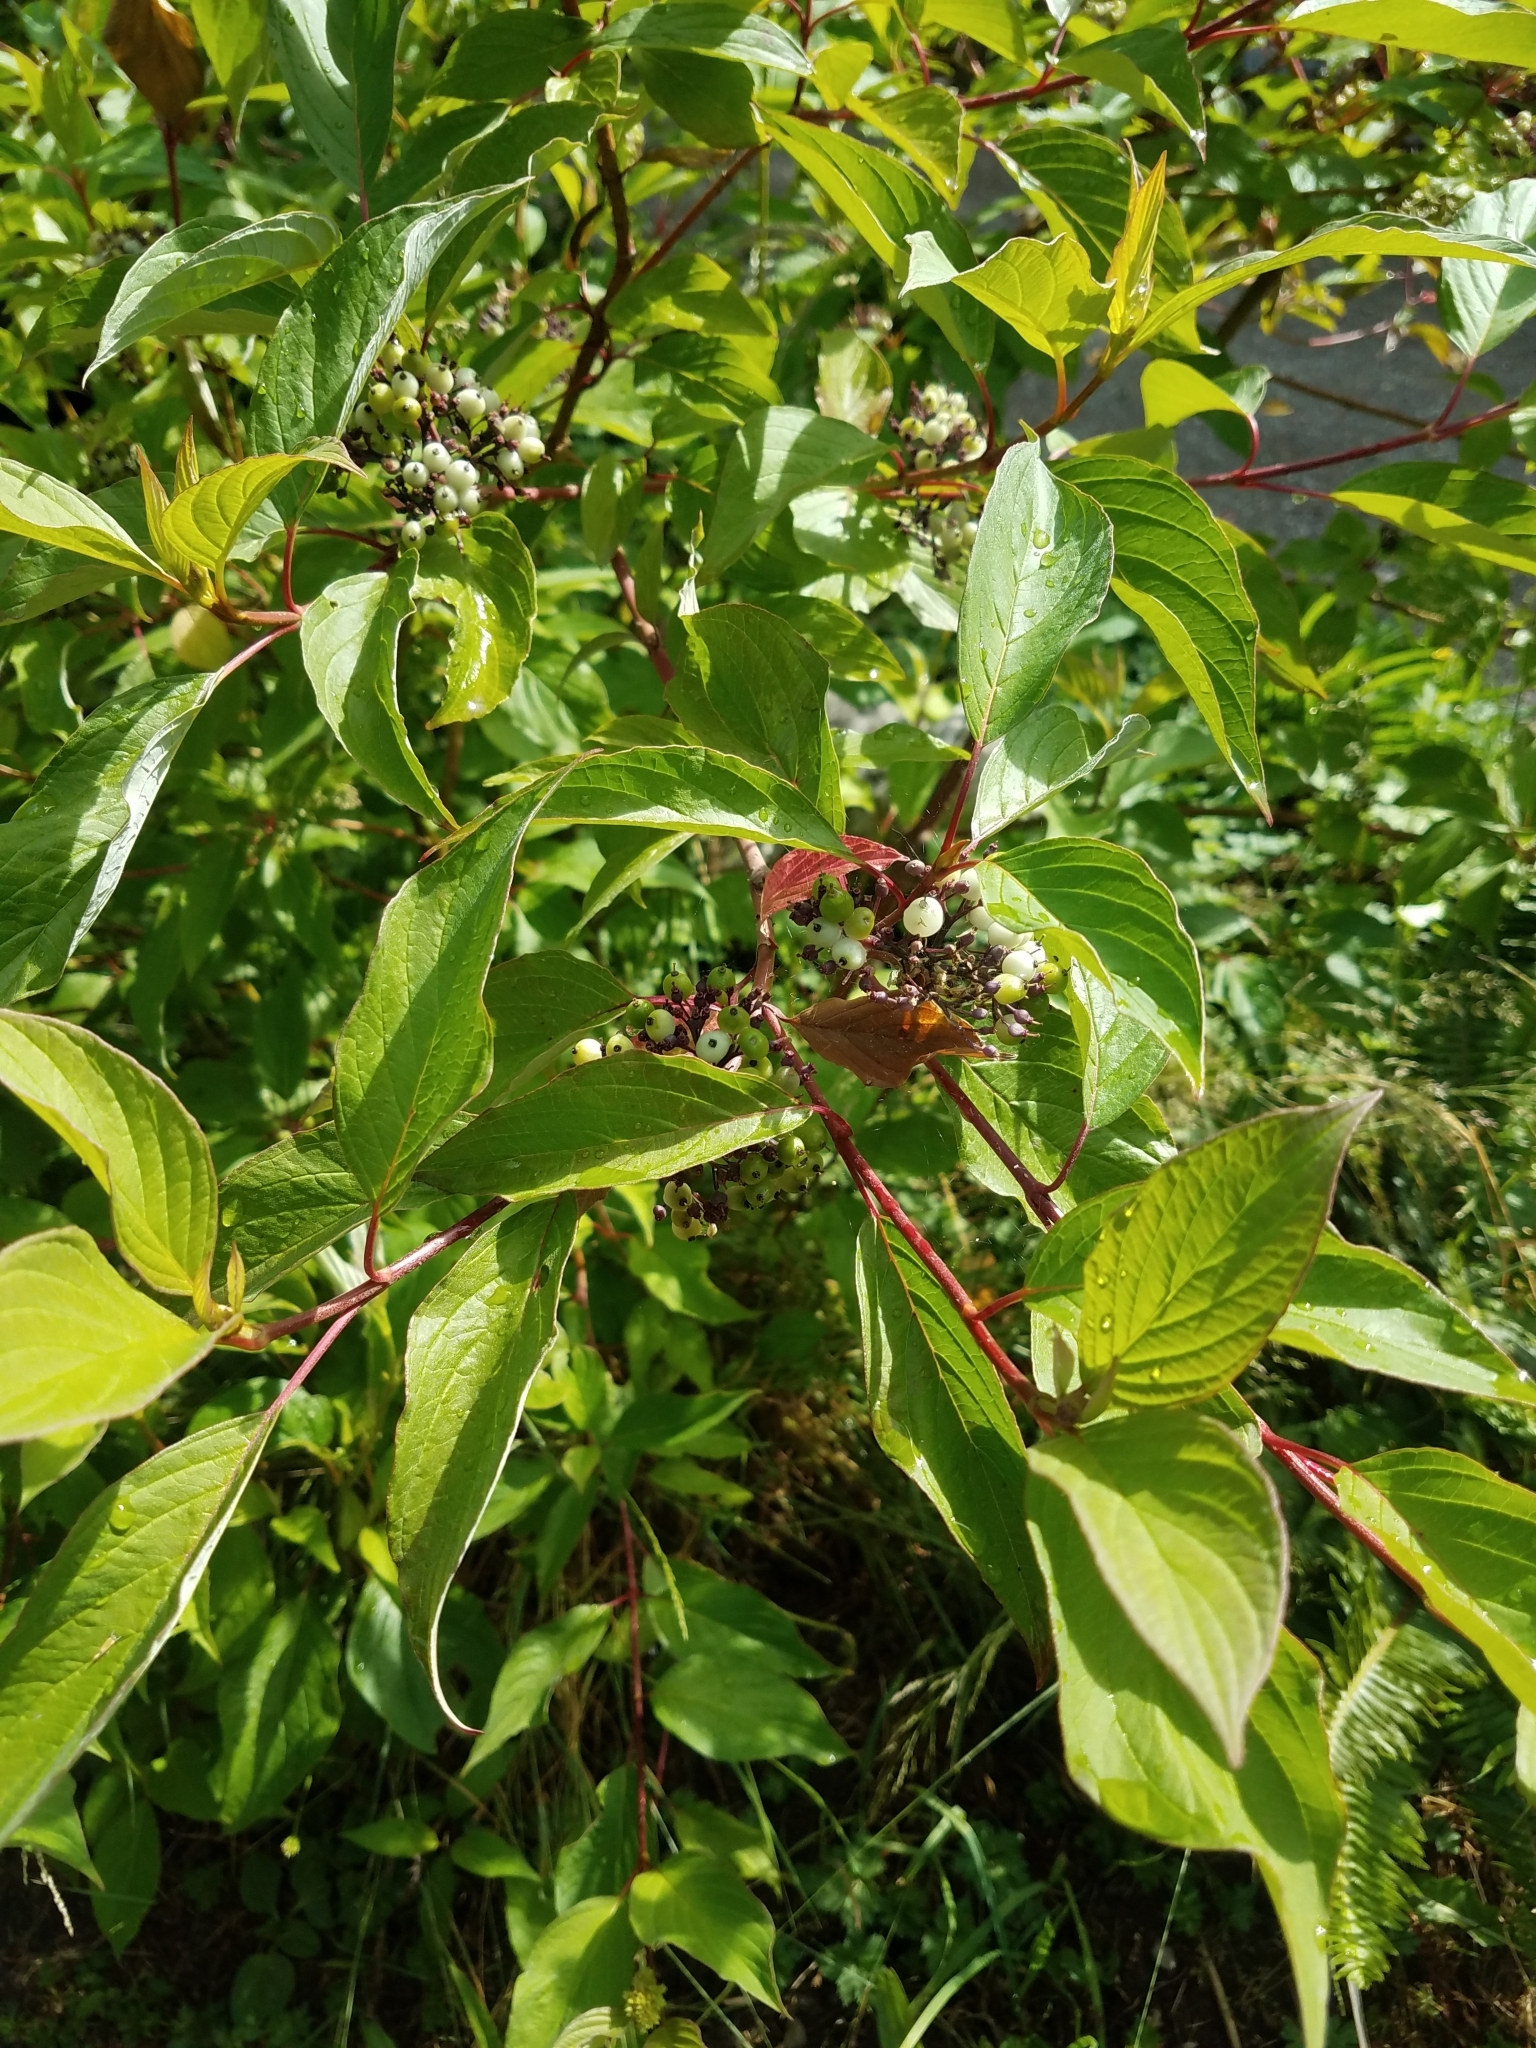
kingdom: Plantae
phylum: Tracheophyta
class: Magnoliopsida
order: Cornales
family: Cornaceae
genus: Cornus
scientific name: Cornus sericea
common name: Red-osier dogwood
